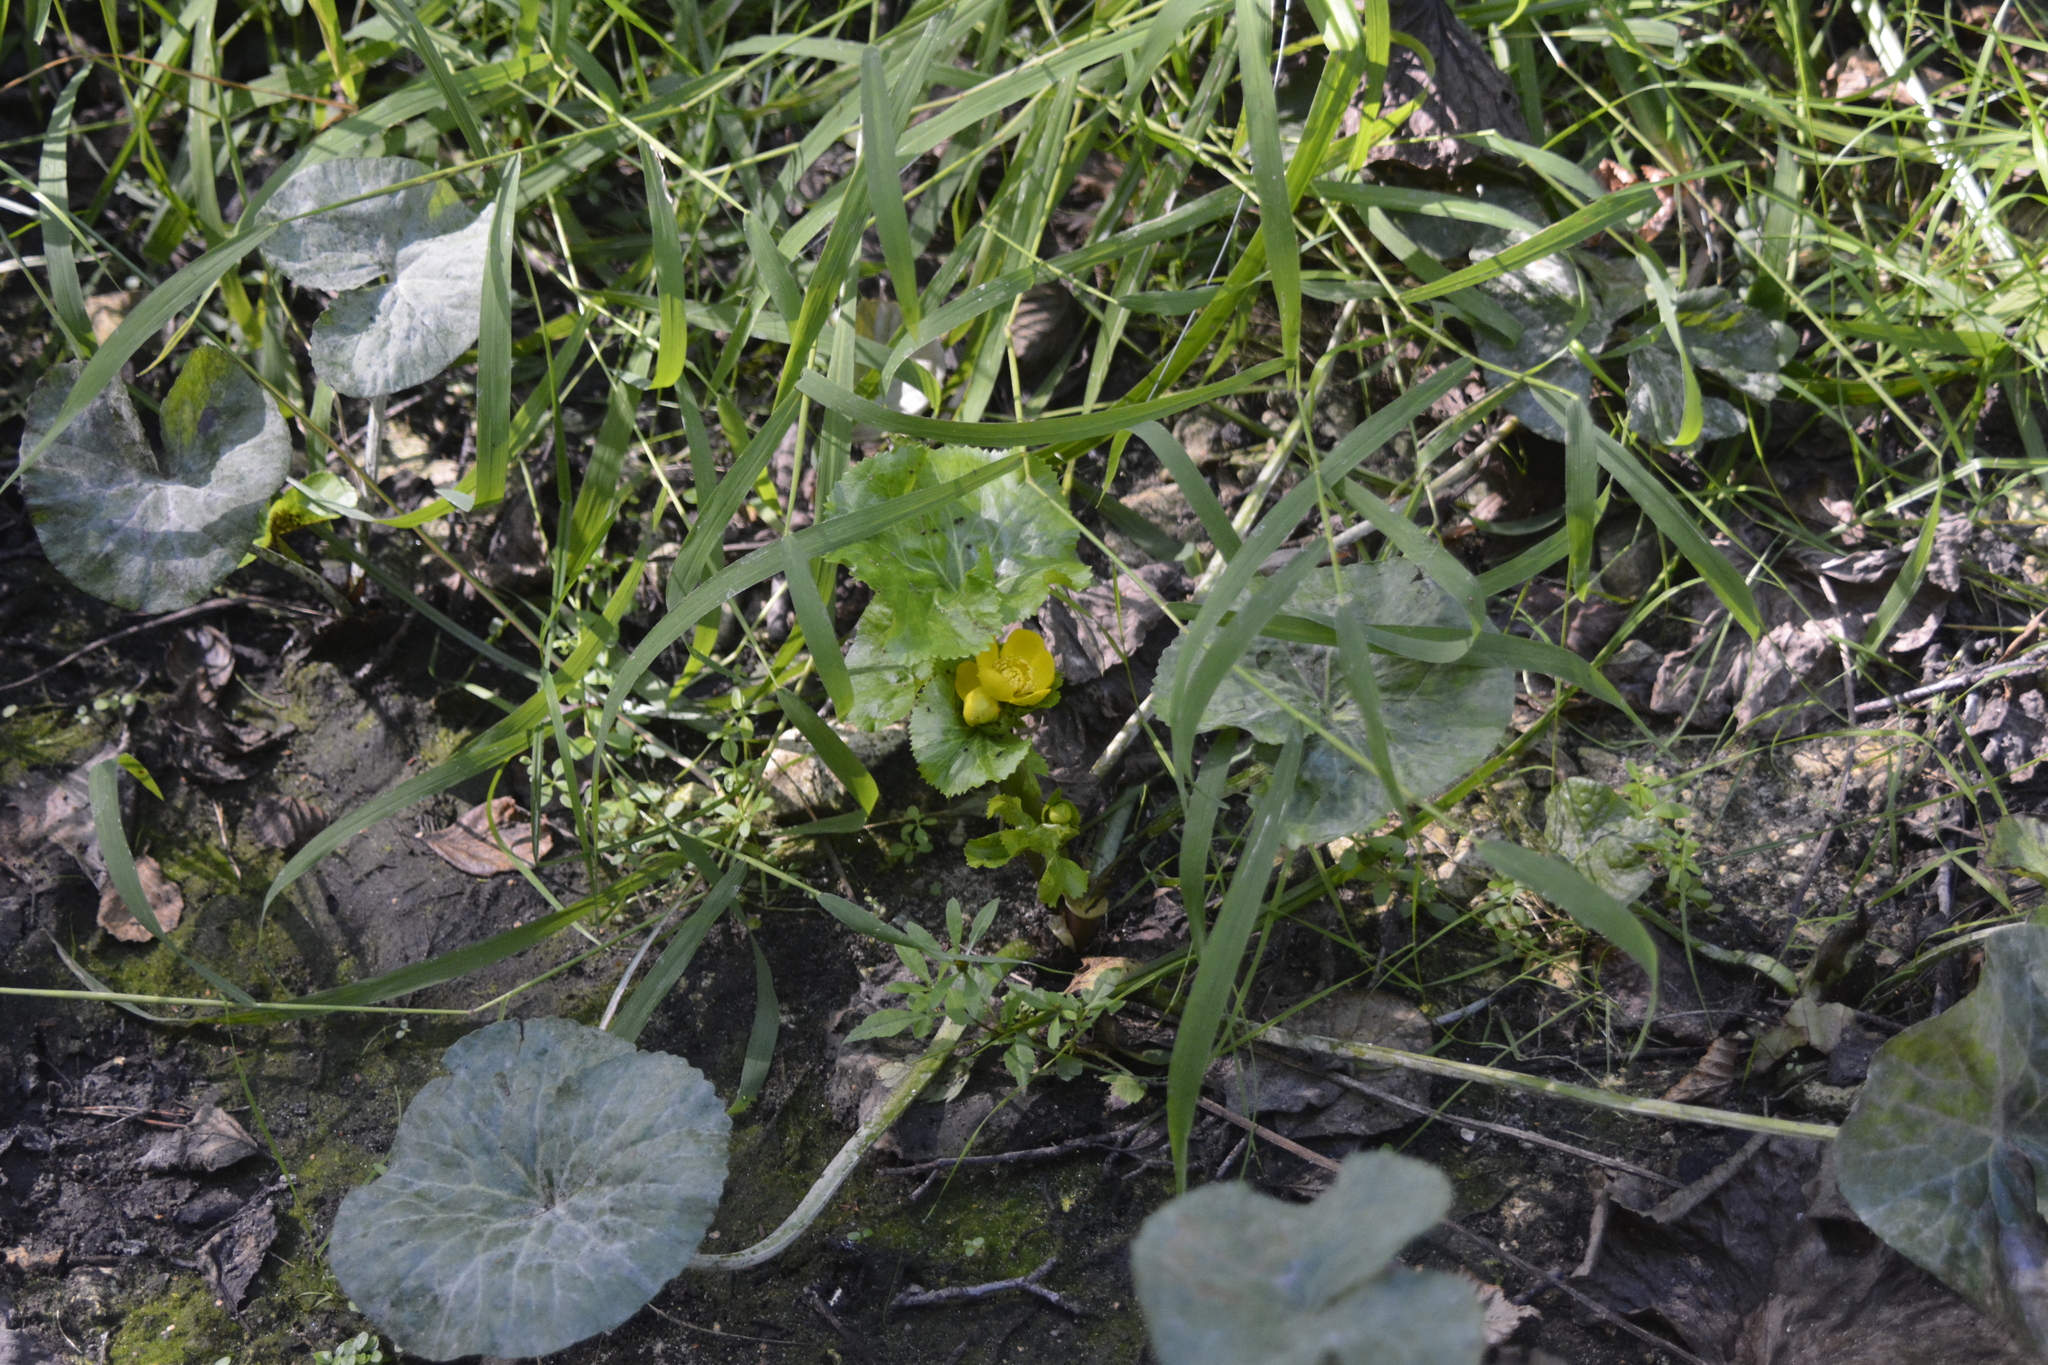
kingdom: Plantae
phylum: Tracheophyta
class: Magnoliopsida
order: Ranunculales
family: Ranunculaceae
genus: Caltha
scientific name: Caltha palustris
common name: Marsh marigold
